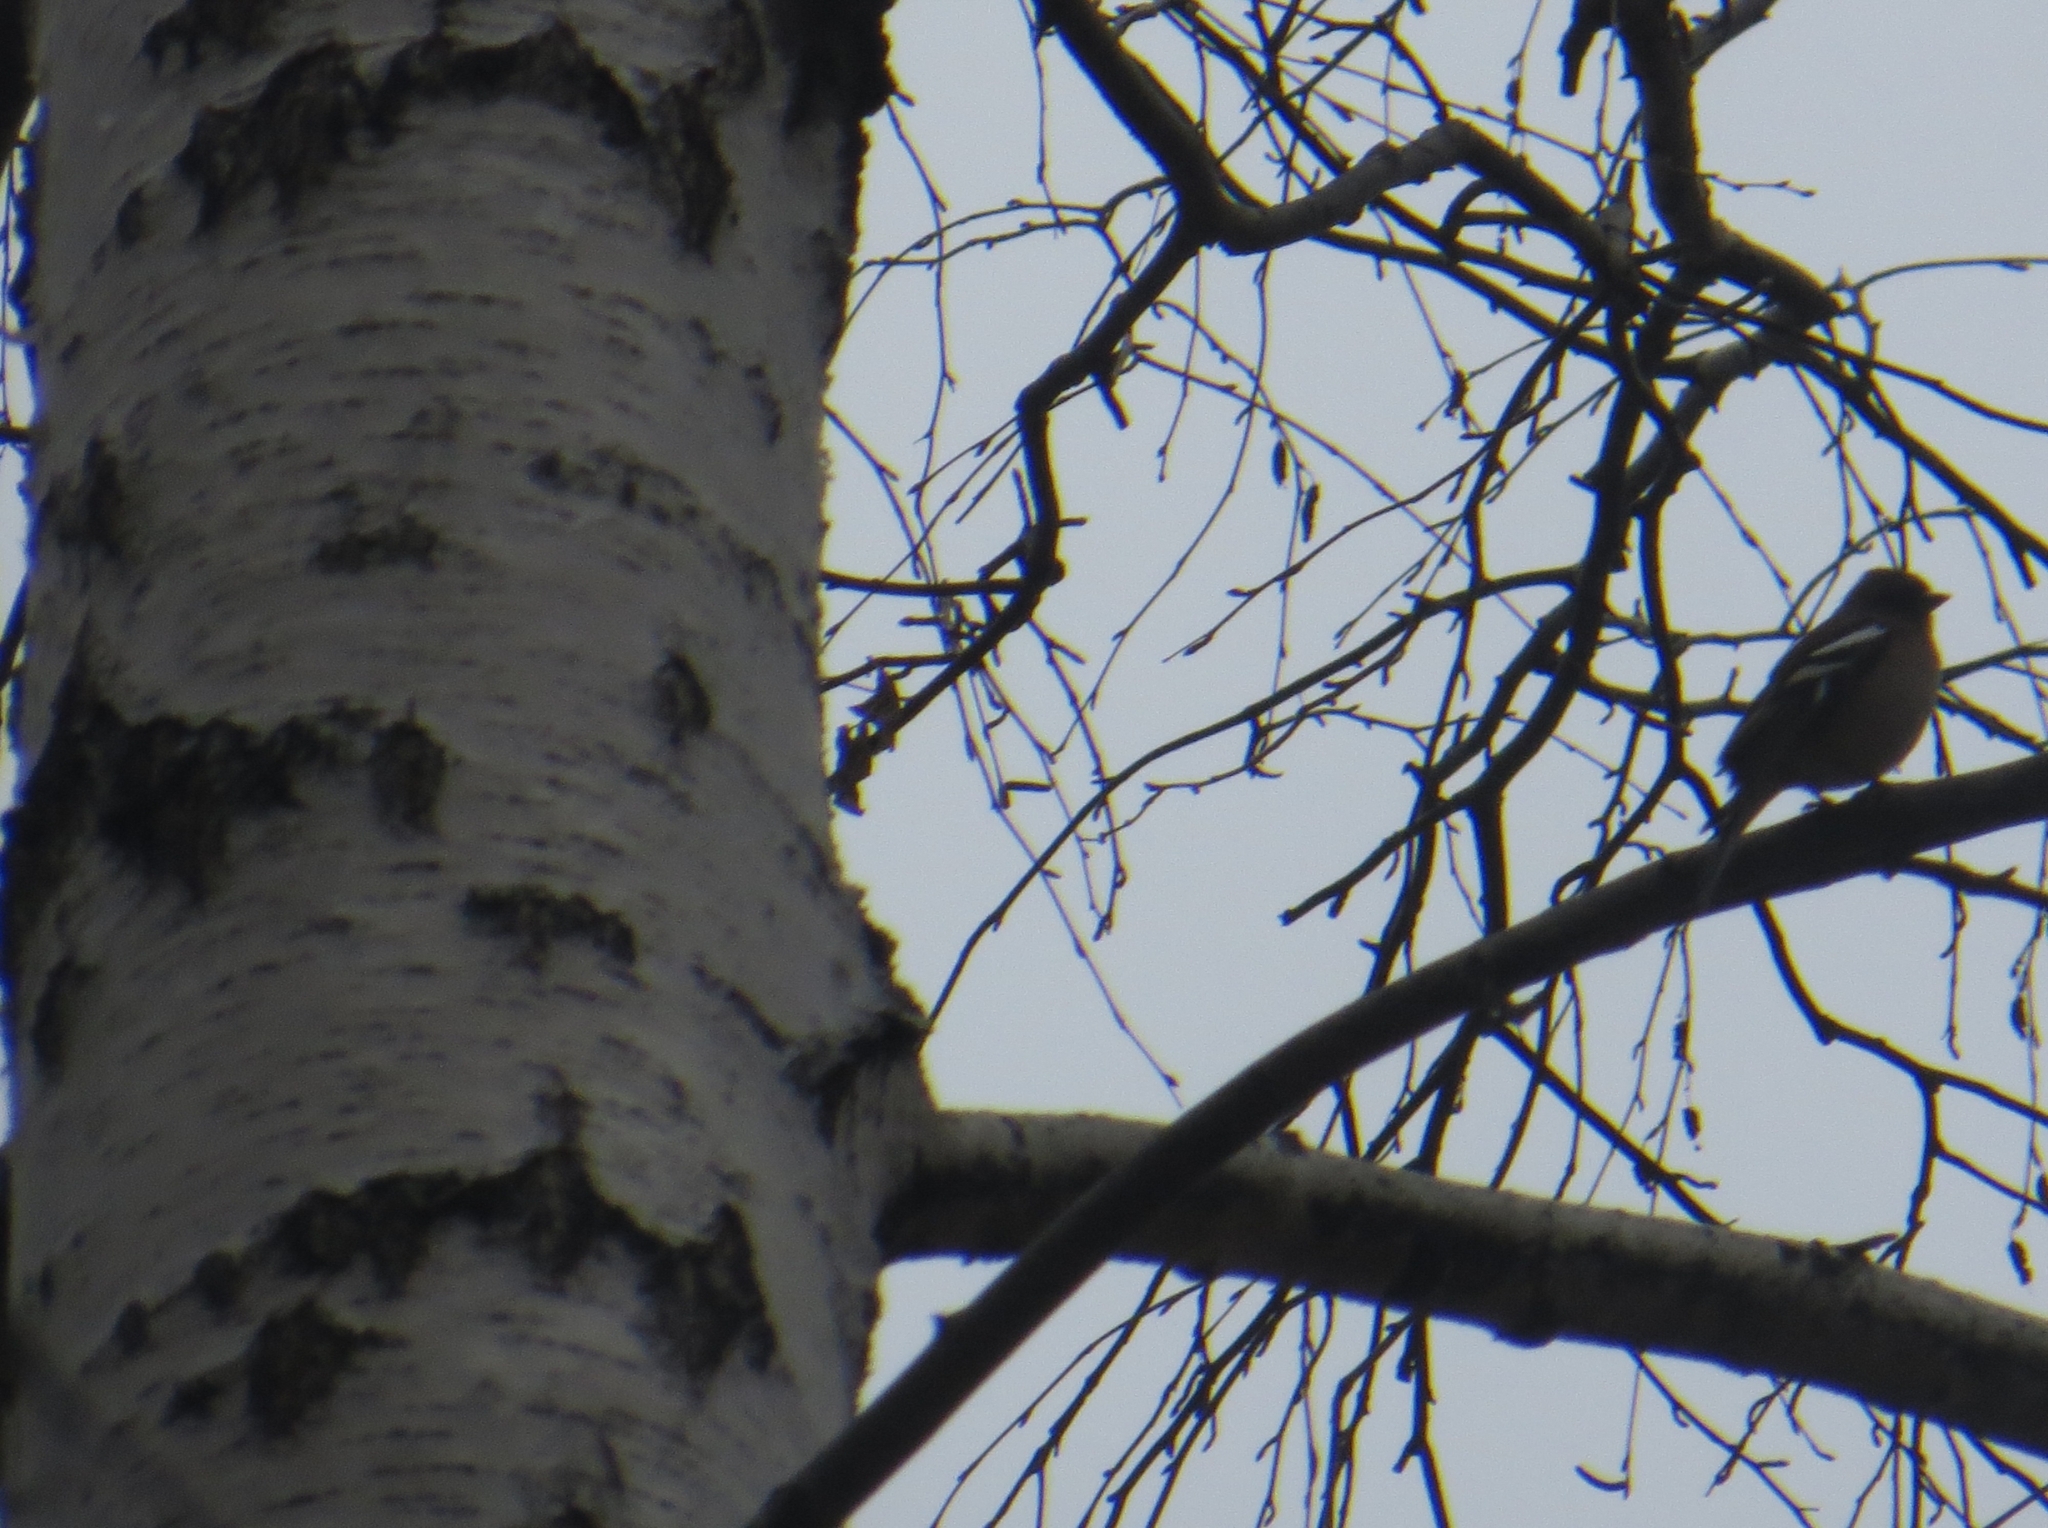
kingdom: Animalia
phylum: Chordata
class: Aves
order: Passeriformes
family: Fringillidae
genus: Fringilla
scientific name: Fringilla coelebs
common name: Common chaffinch
